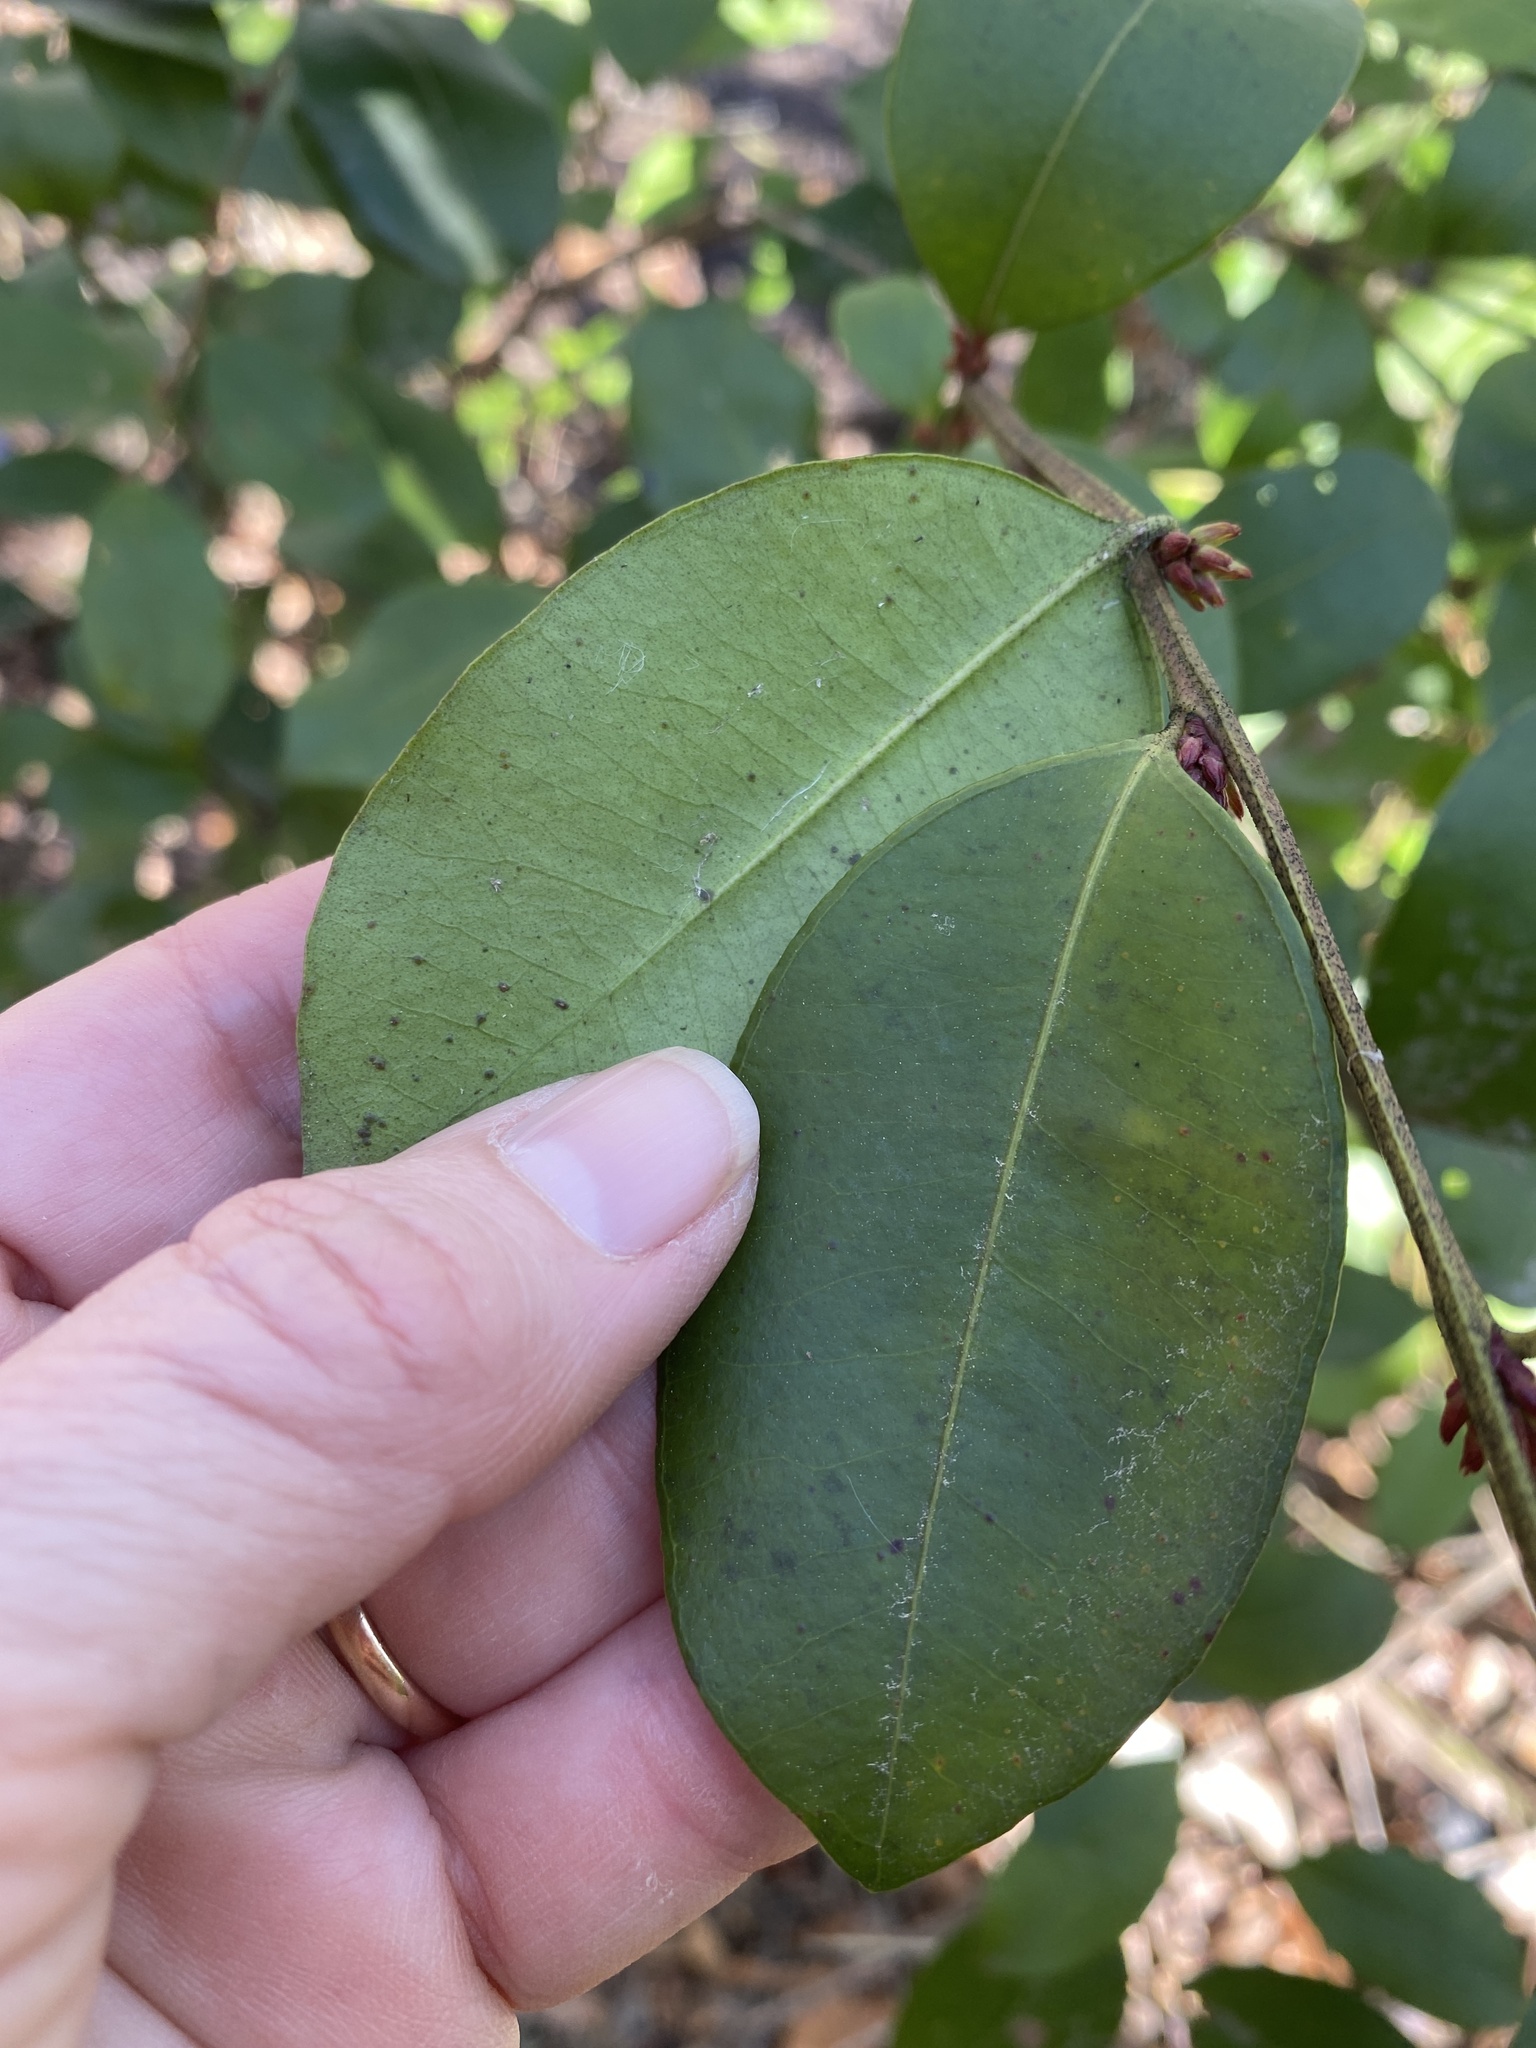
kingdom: Plantae
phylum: Tracheophyta
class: Magnoliopsida
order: Ericales
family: Ericaceae
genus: Lyonia
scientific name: Lyonia lucida
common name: Fetterbush
